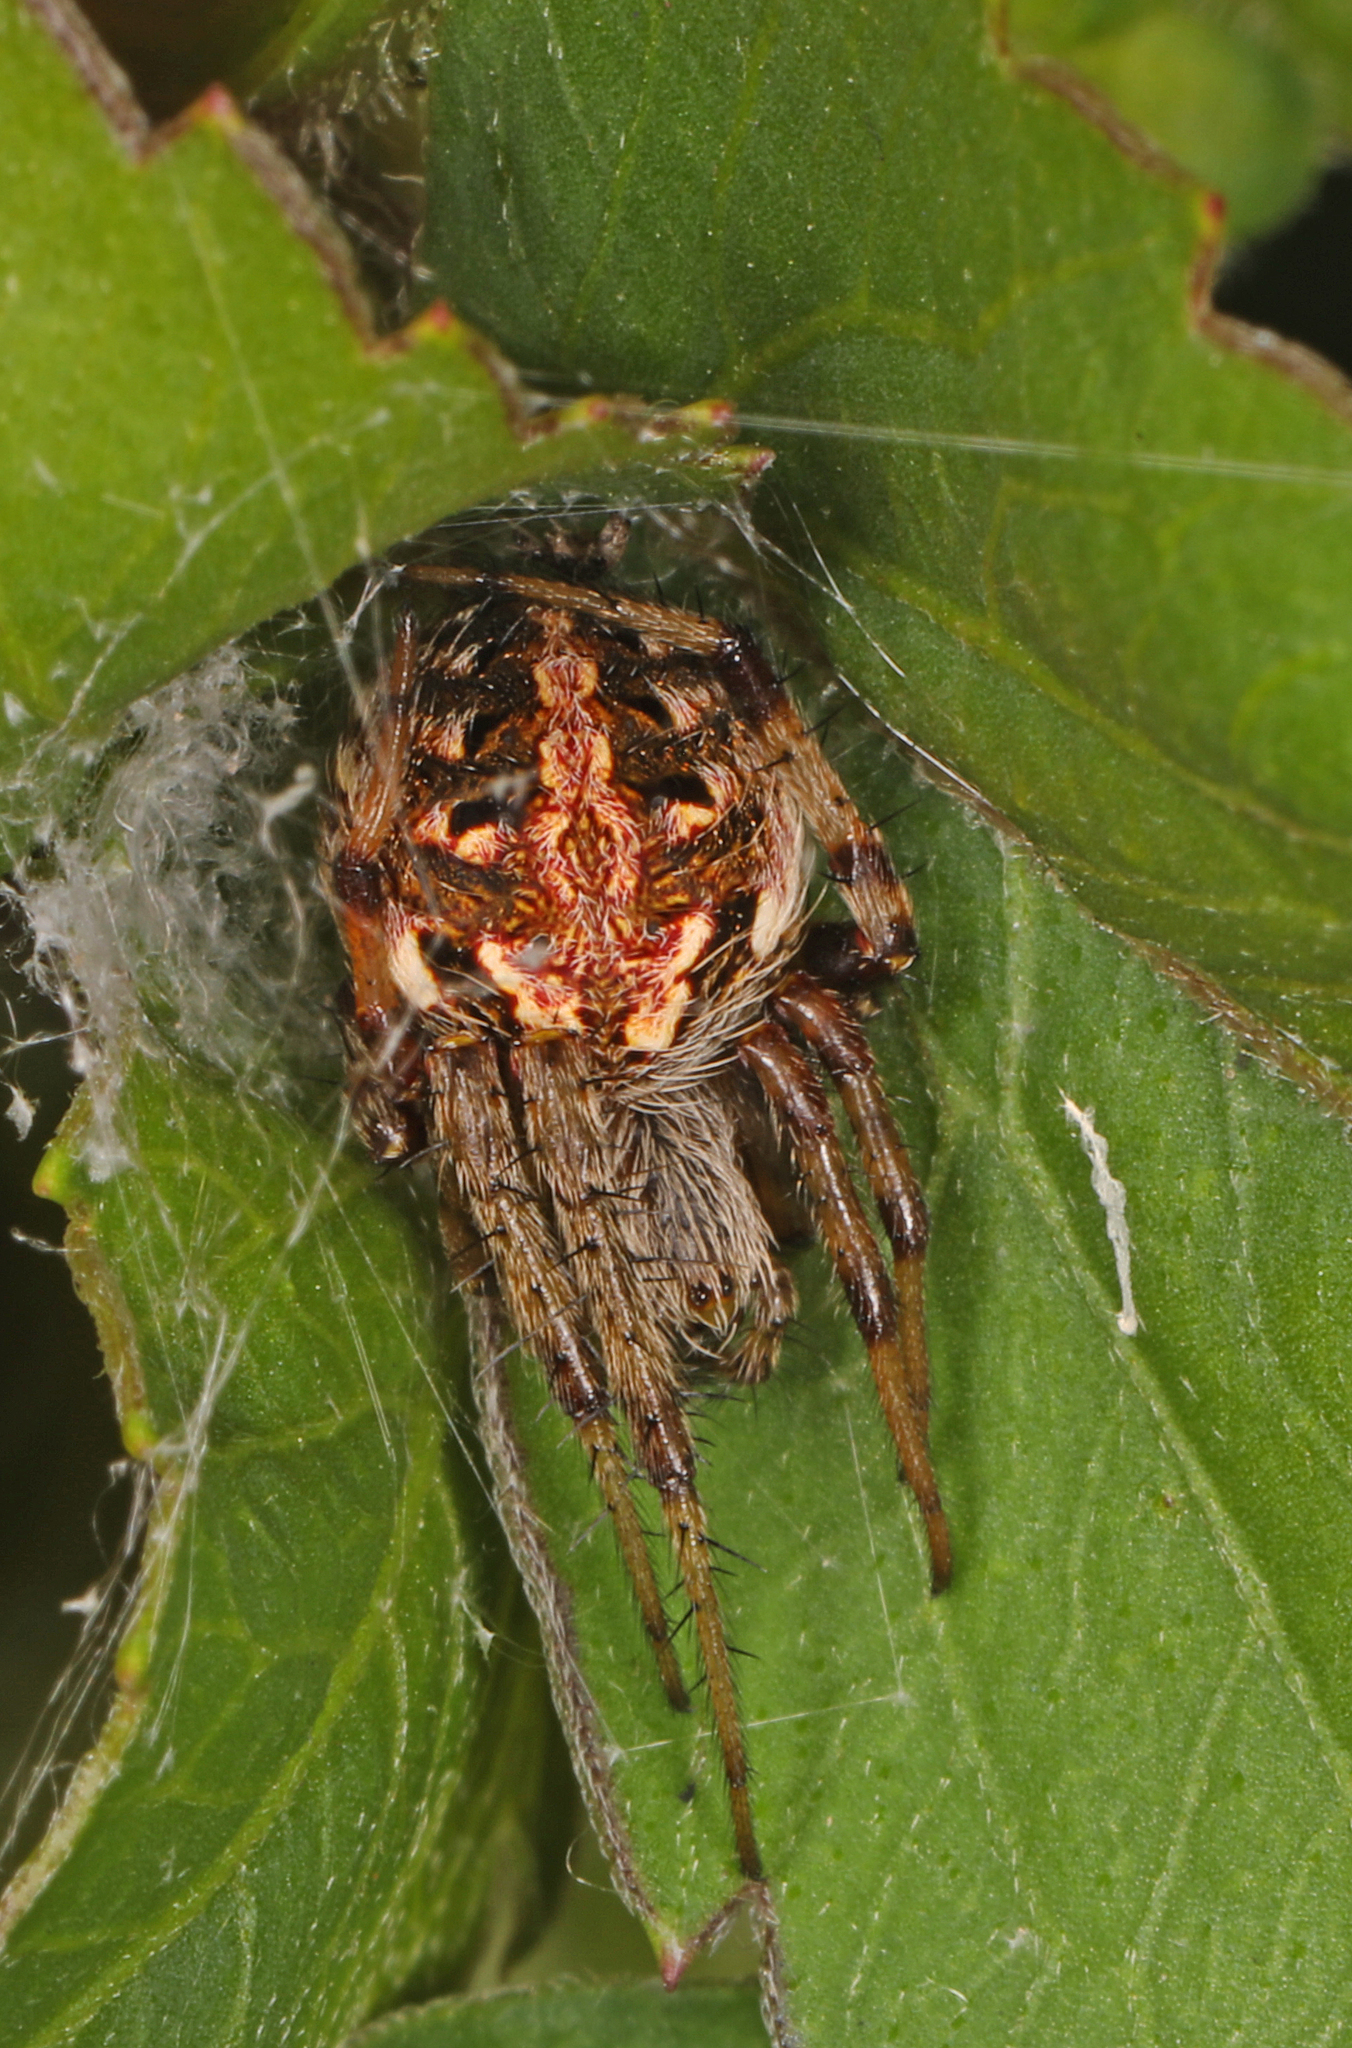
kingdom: Animalia
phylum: Arthropoda
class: Arachnida
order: Araneae
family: Araneidae
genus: Neoscona
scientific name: Neoscona arabesca
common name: Orb weavers
